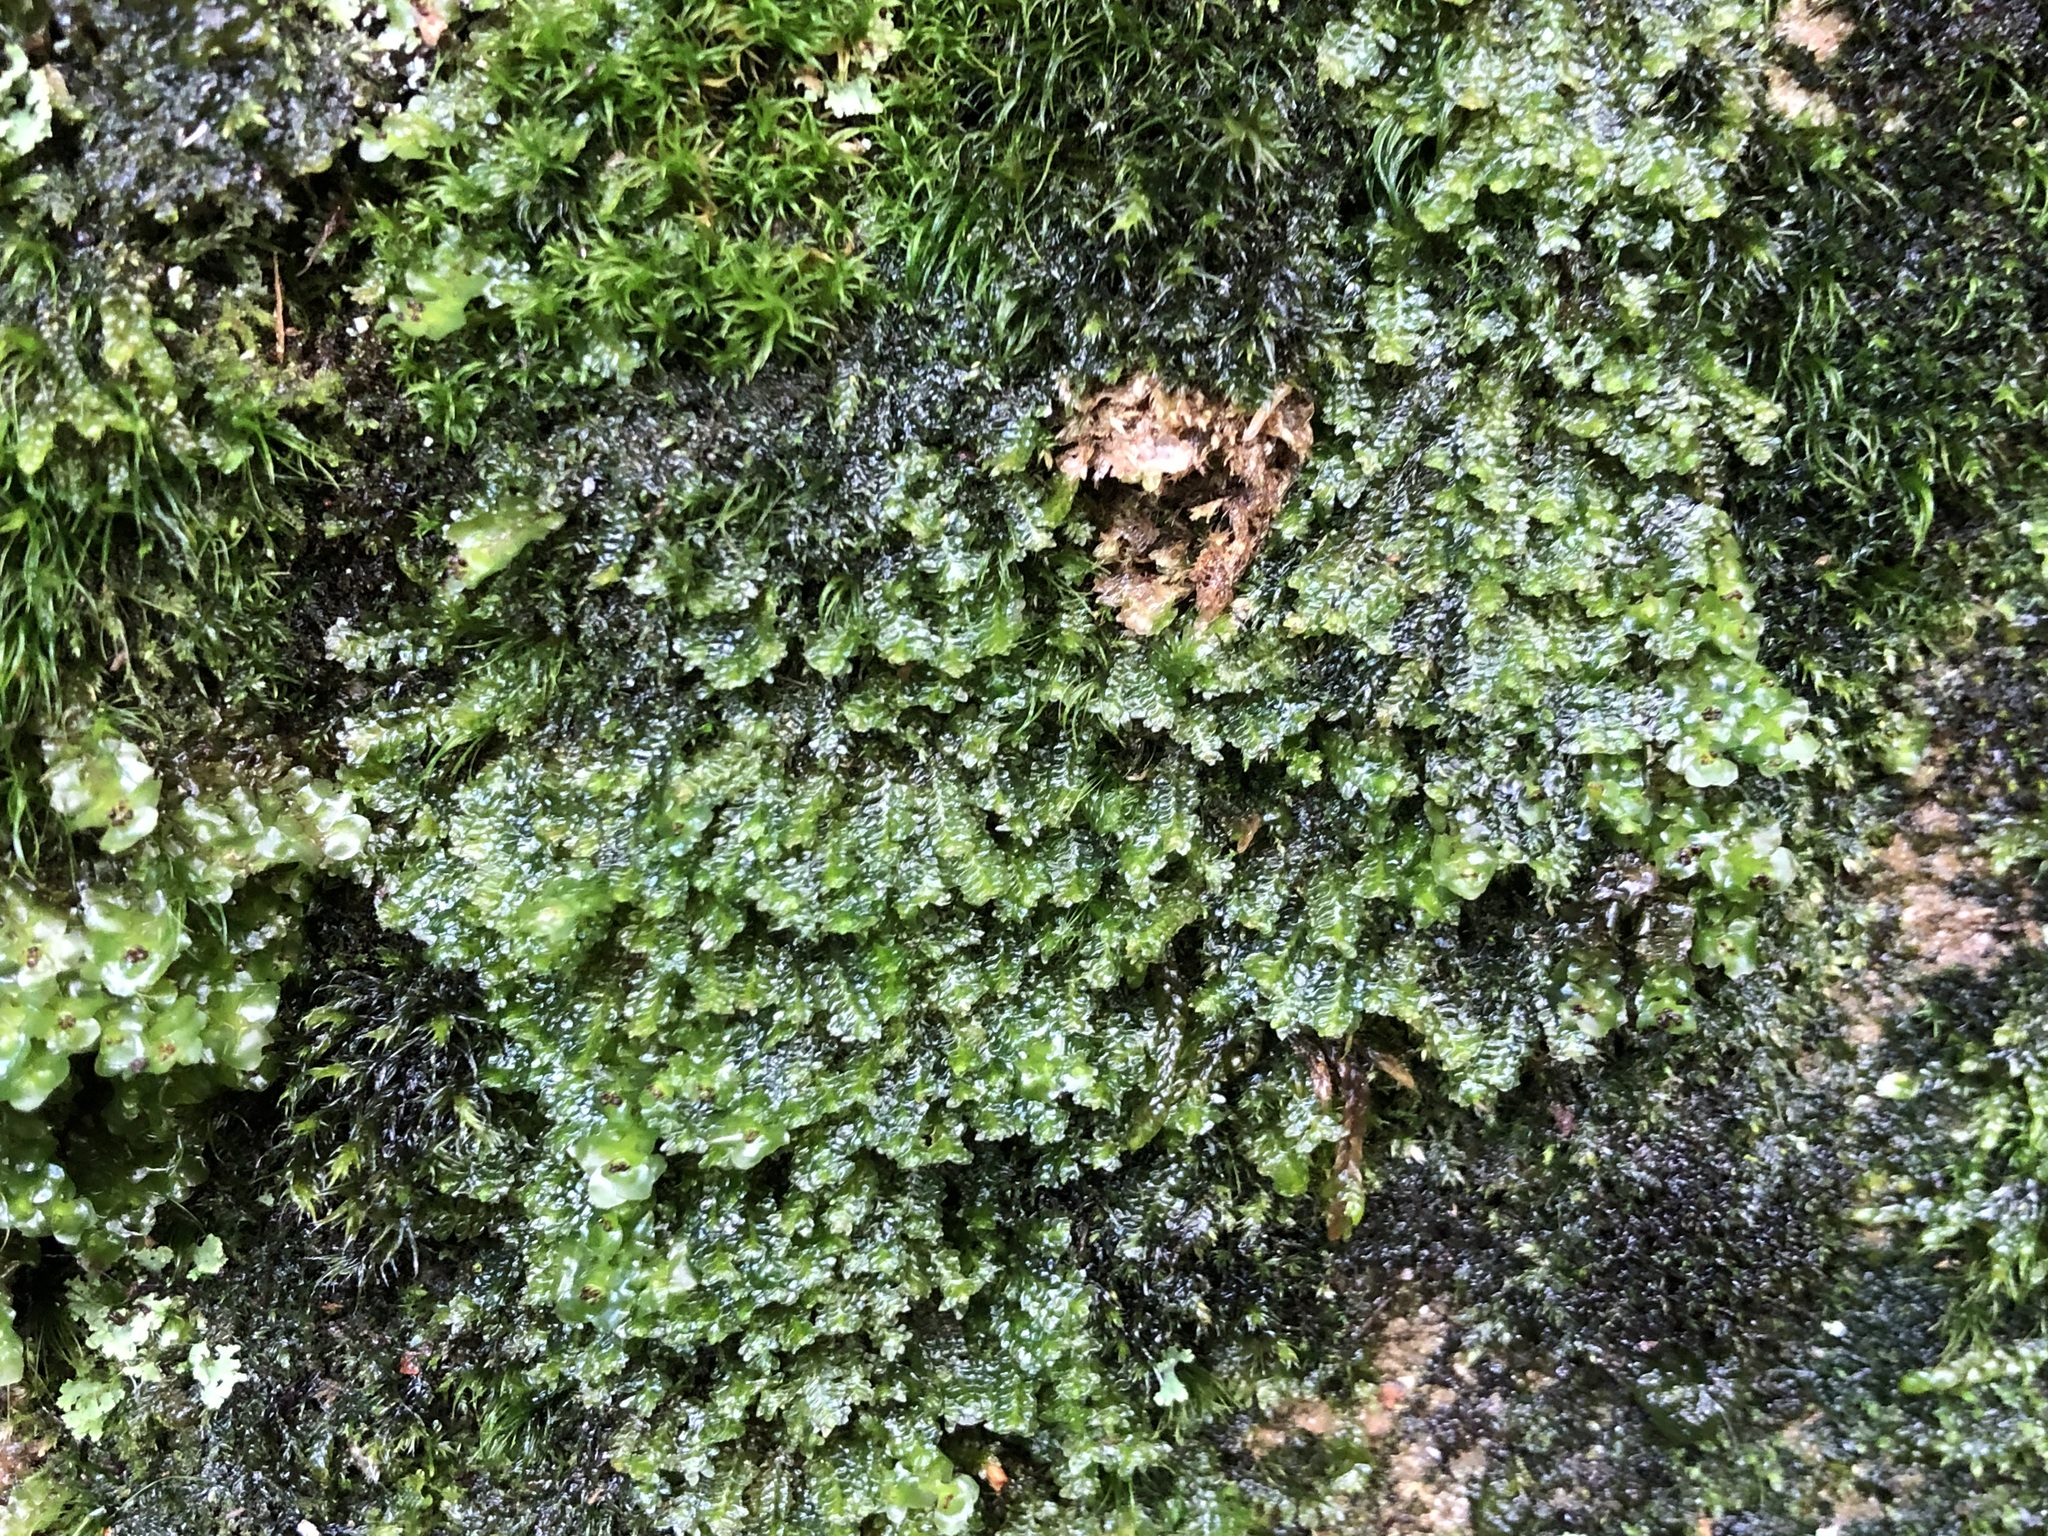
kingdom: Plantae
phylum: Marchantiophyta
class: Jungermanniopsida
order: Jungermanniales
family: Scapaniaceae
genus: Diplophyllum
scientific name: Diplophyllum albicans
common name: White earwort
